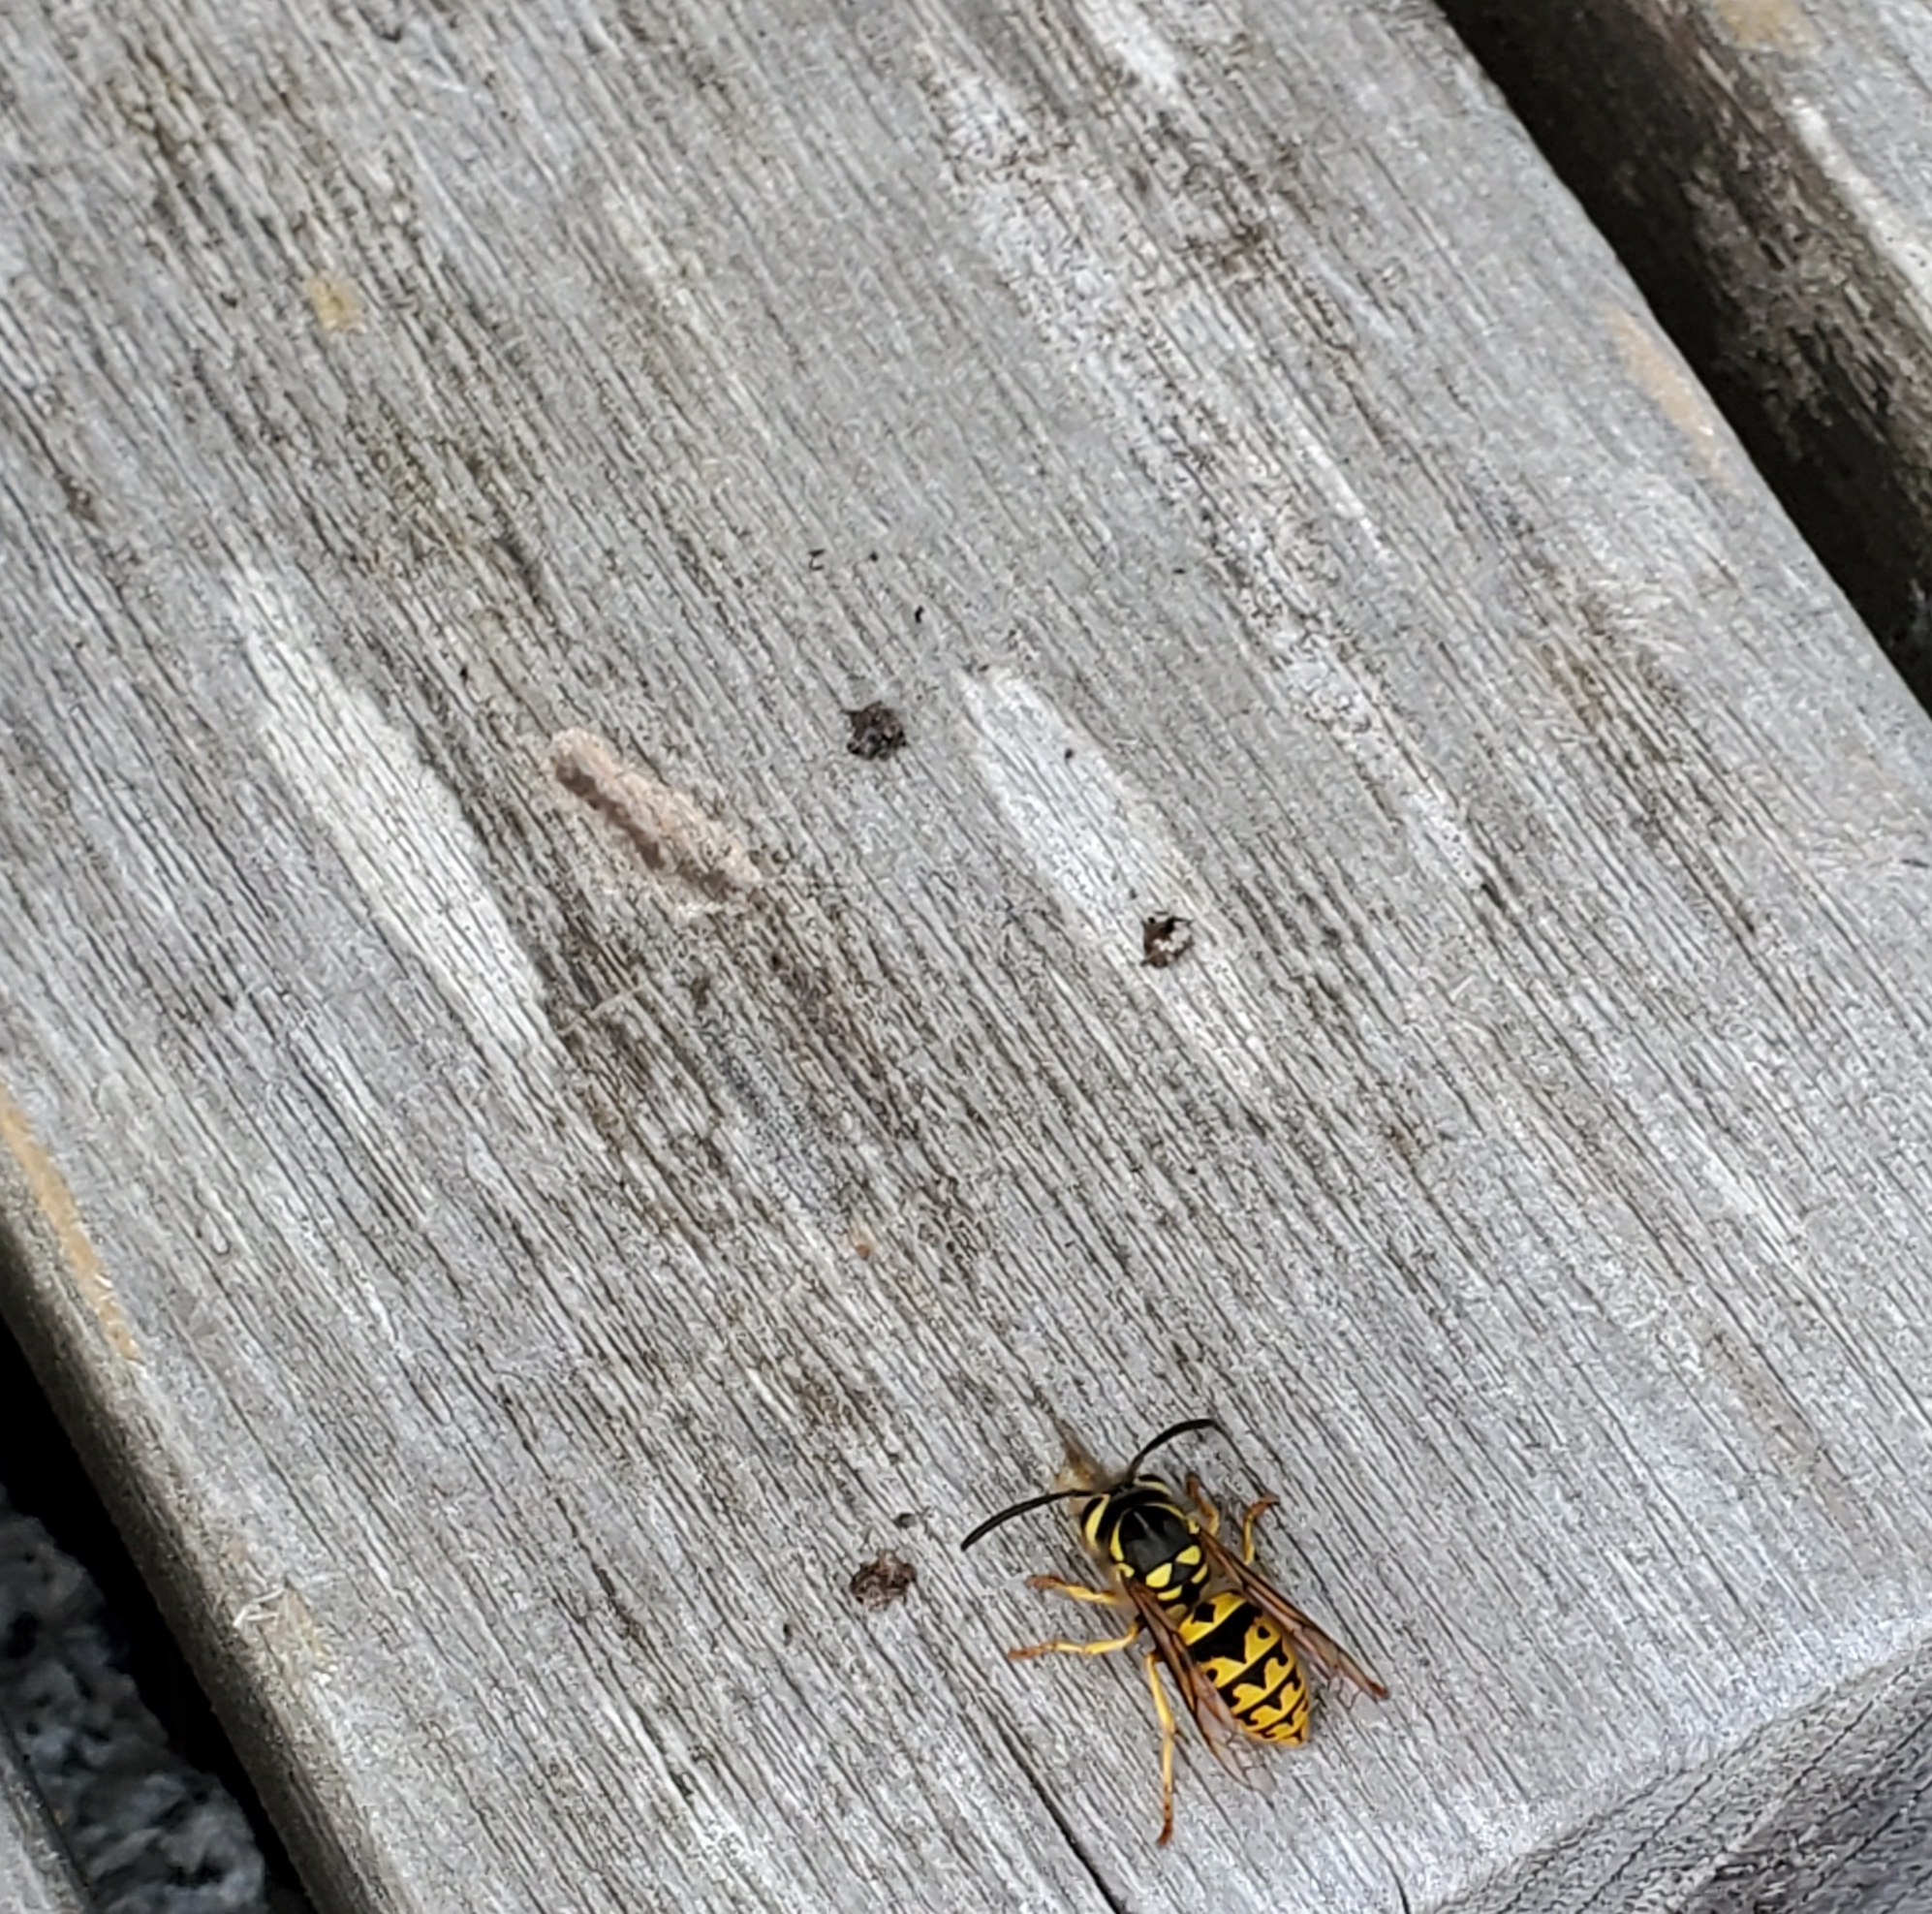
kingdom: Animalia
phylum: Arthropoda
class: Insecta
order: Hymenoptera
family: Vespidae
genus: Vespula
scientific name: Vespula pensylvanica
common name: Western yellowjacket
